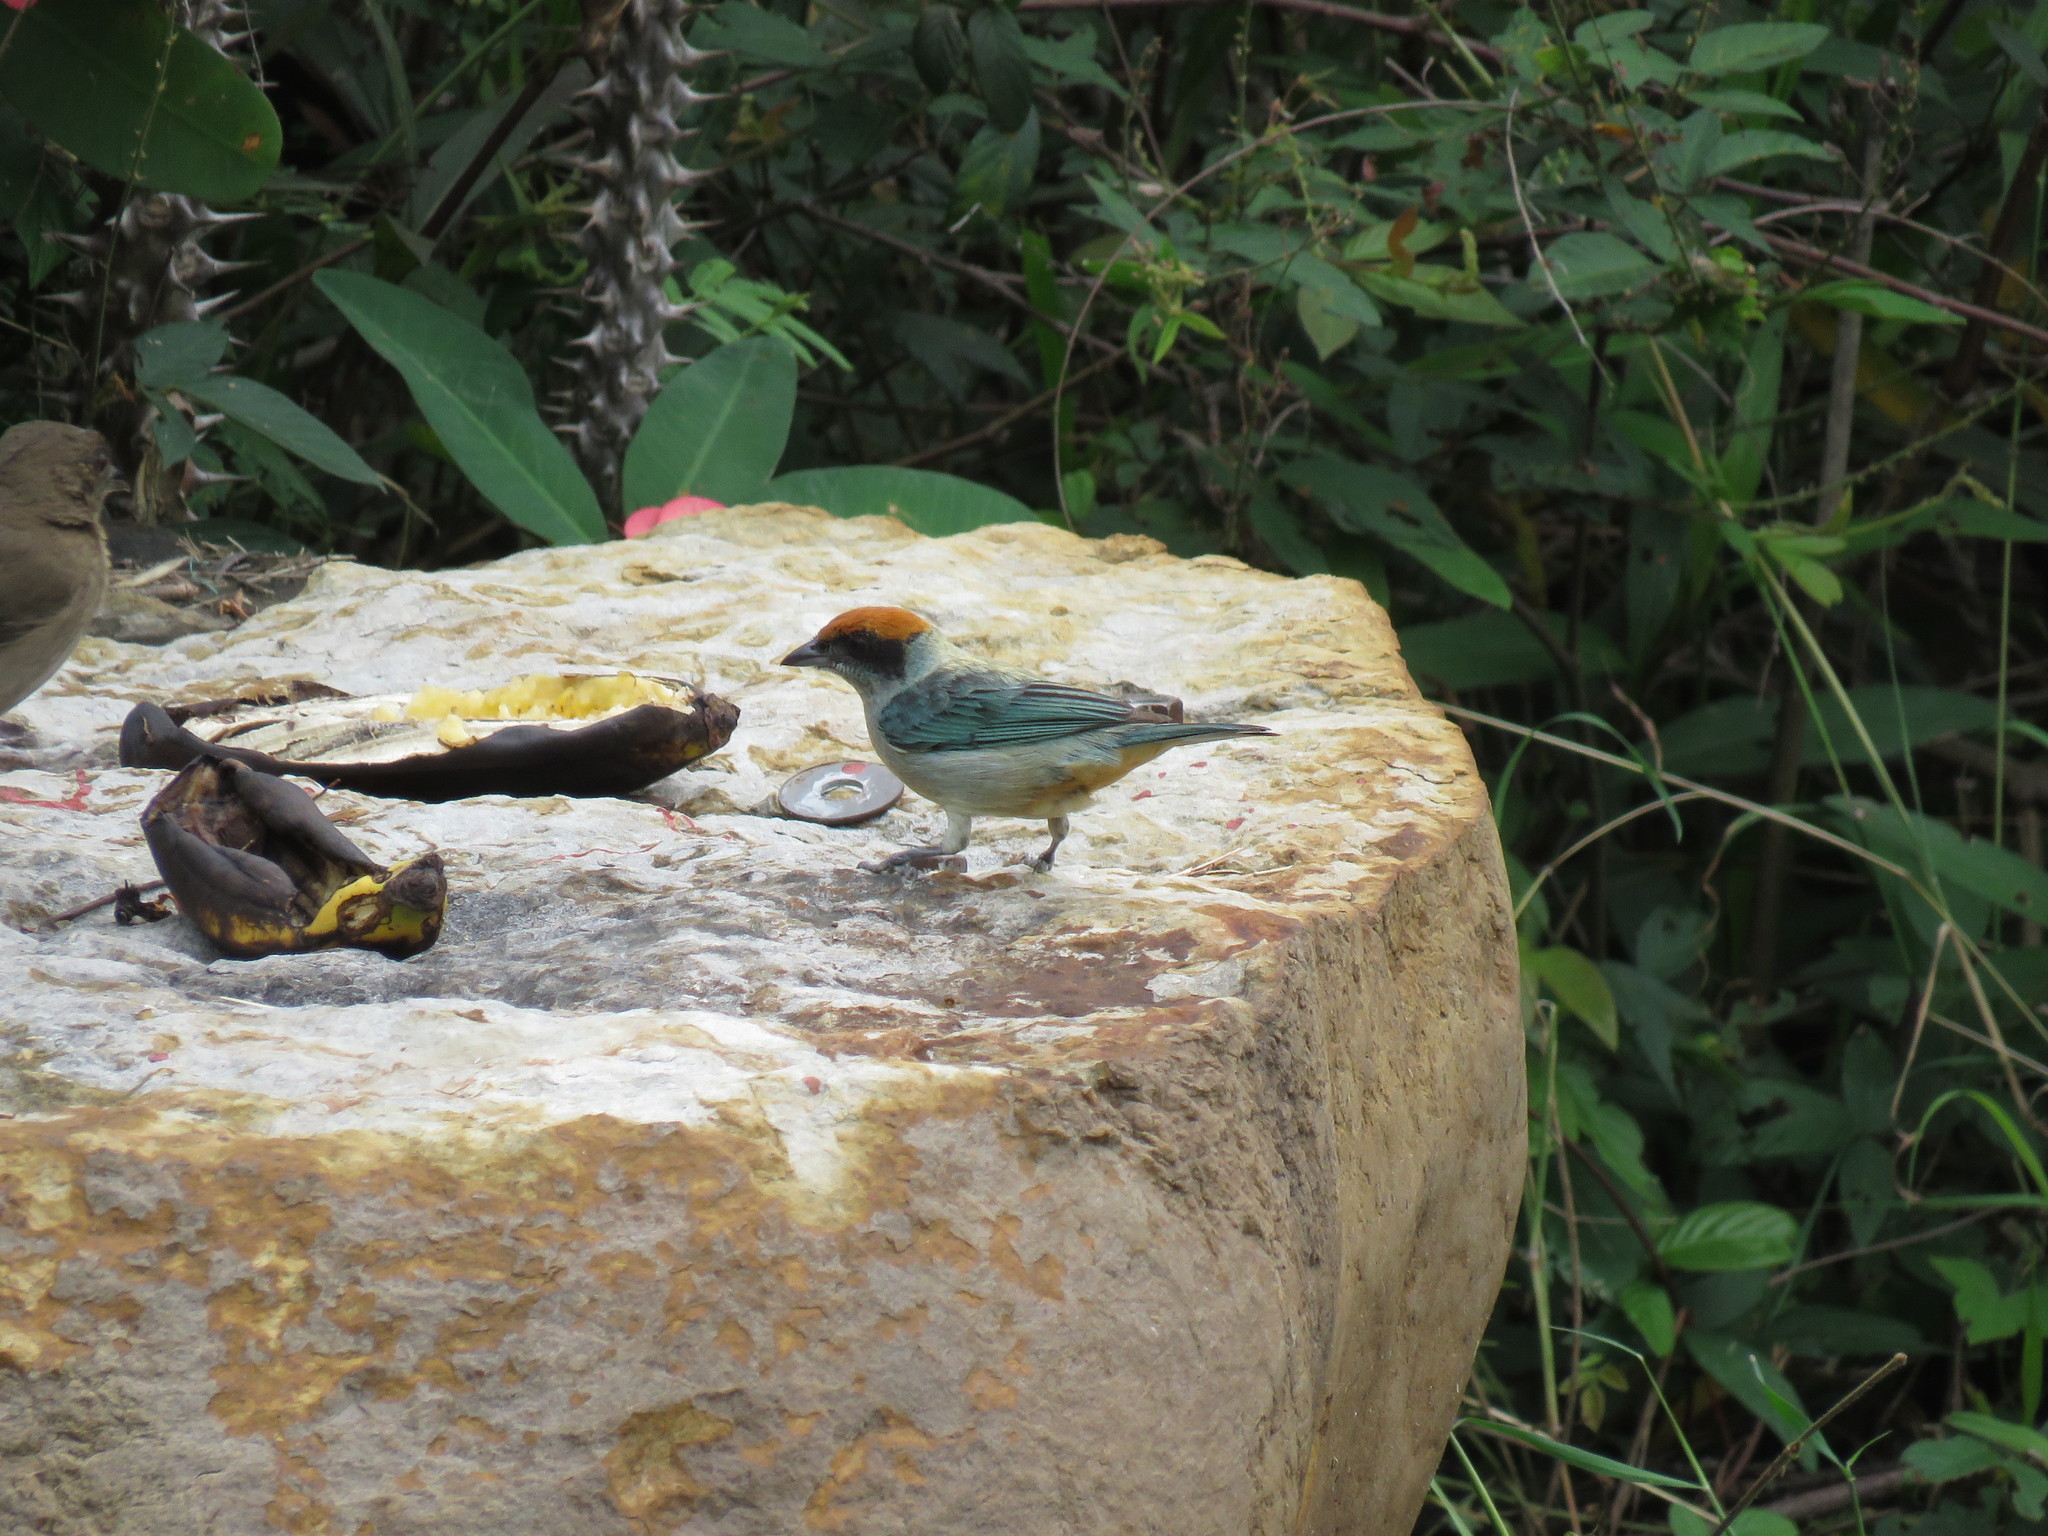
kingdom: Animalia
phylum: Chordata
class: Aves
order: Passeriformes
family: Thraupidae
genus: Stilpnia
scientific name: Stilpnia vitriolina
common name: Scrub tanager
